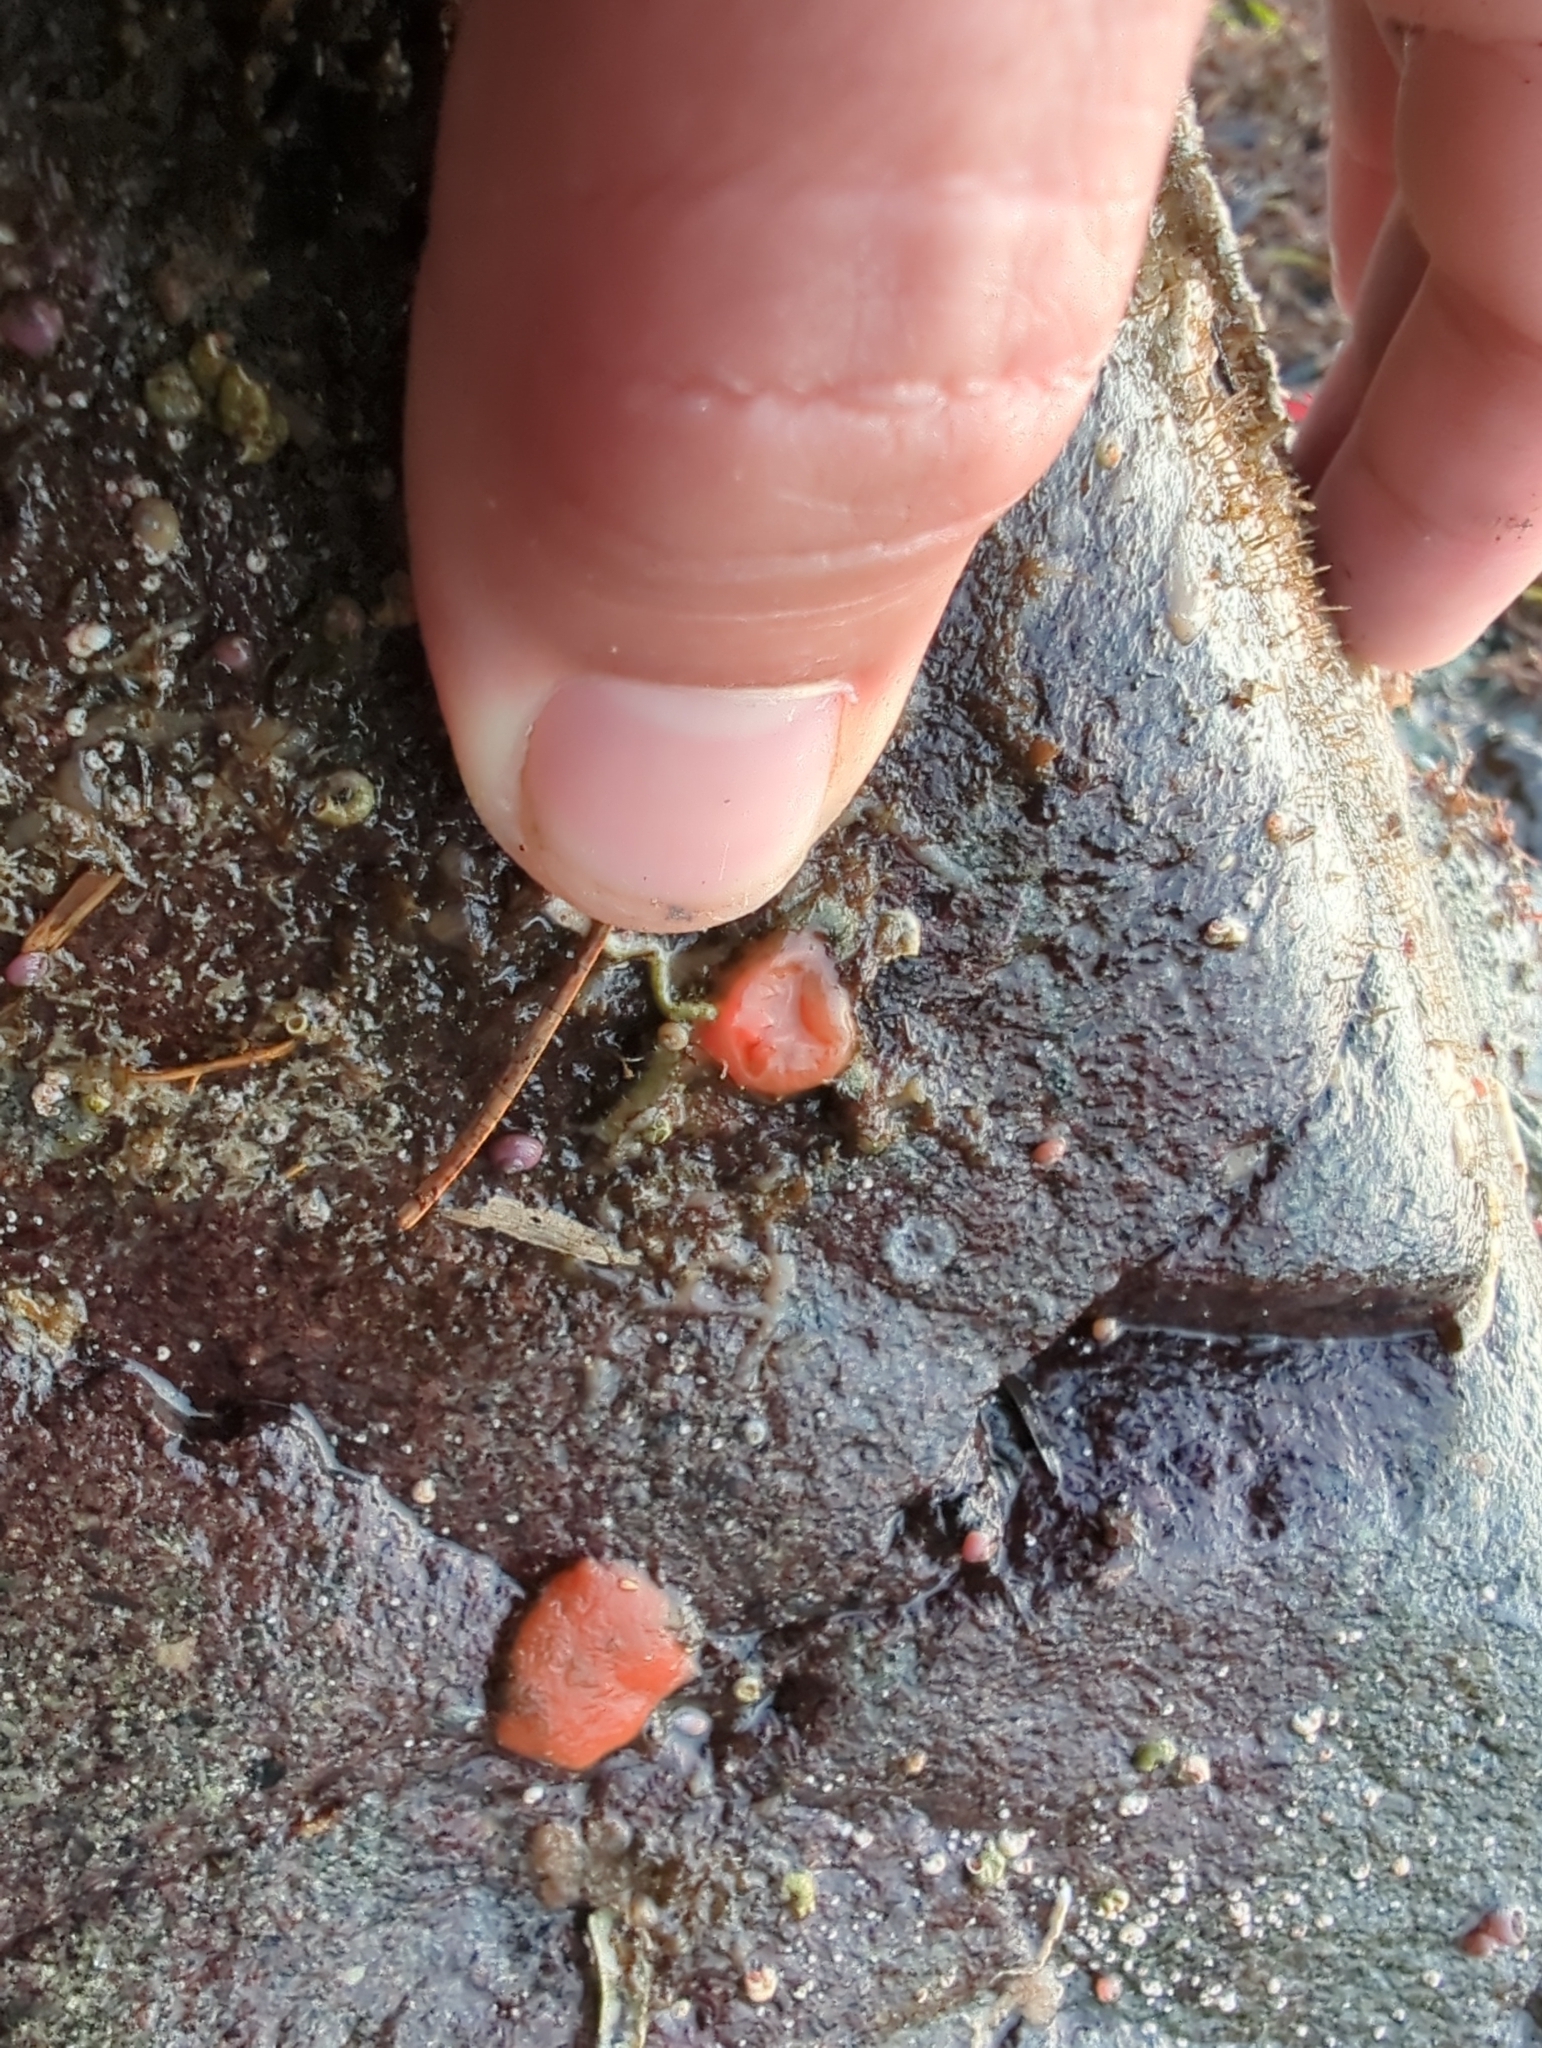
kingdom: Animalia
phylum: Chordata
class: Ascidiacea
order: Stolidobranchia
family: Styelidae
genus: Cnemidocarpa
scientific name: Cnemidocarpa finmarkiensis
